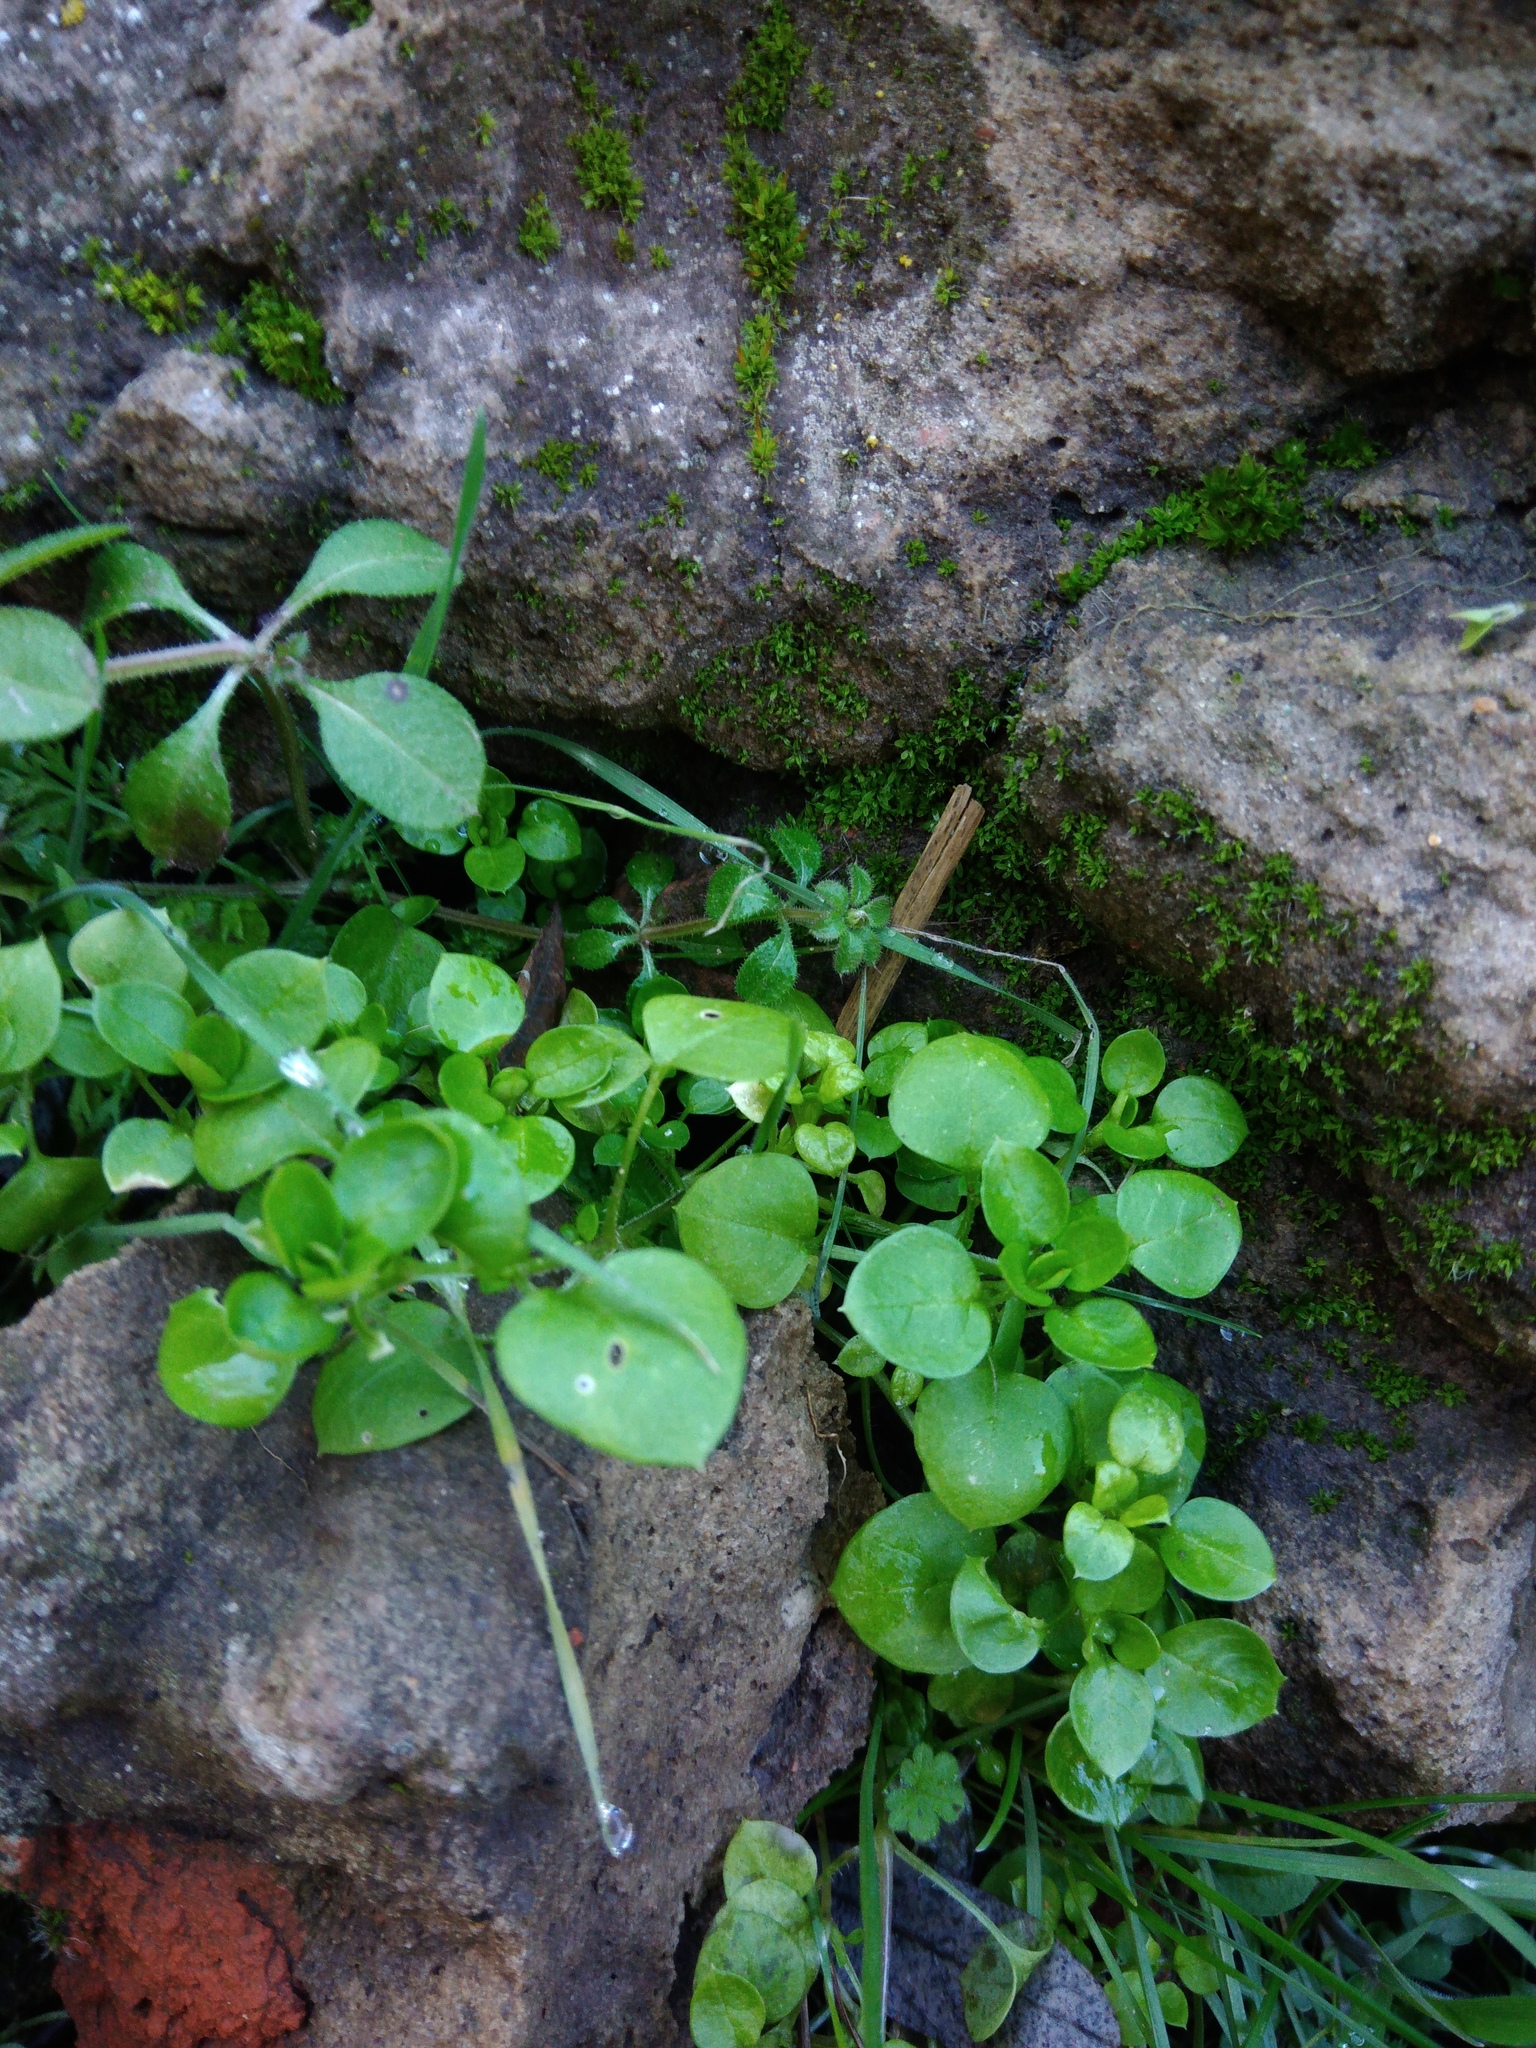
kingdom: Plantae
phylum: Tracheophyta
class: Magnoliopsida
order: Caryophyllales
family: Caryophyllaceae
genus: Stellaria
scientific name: Stellaria media
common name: Common chickweed
